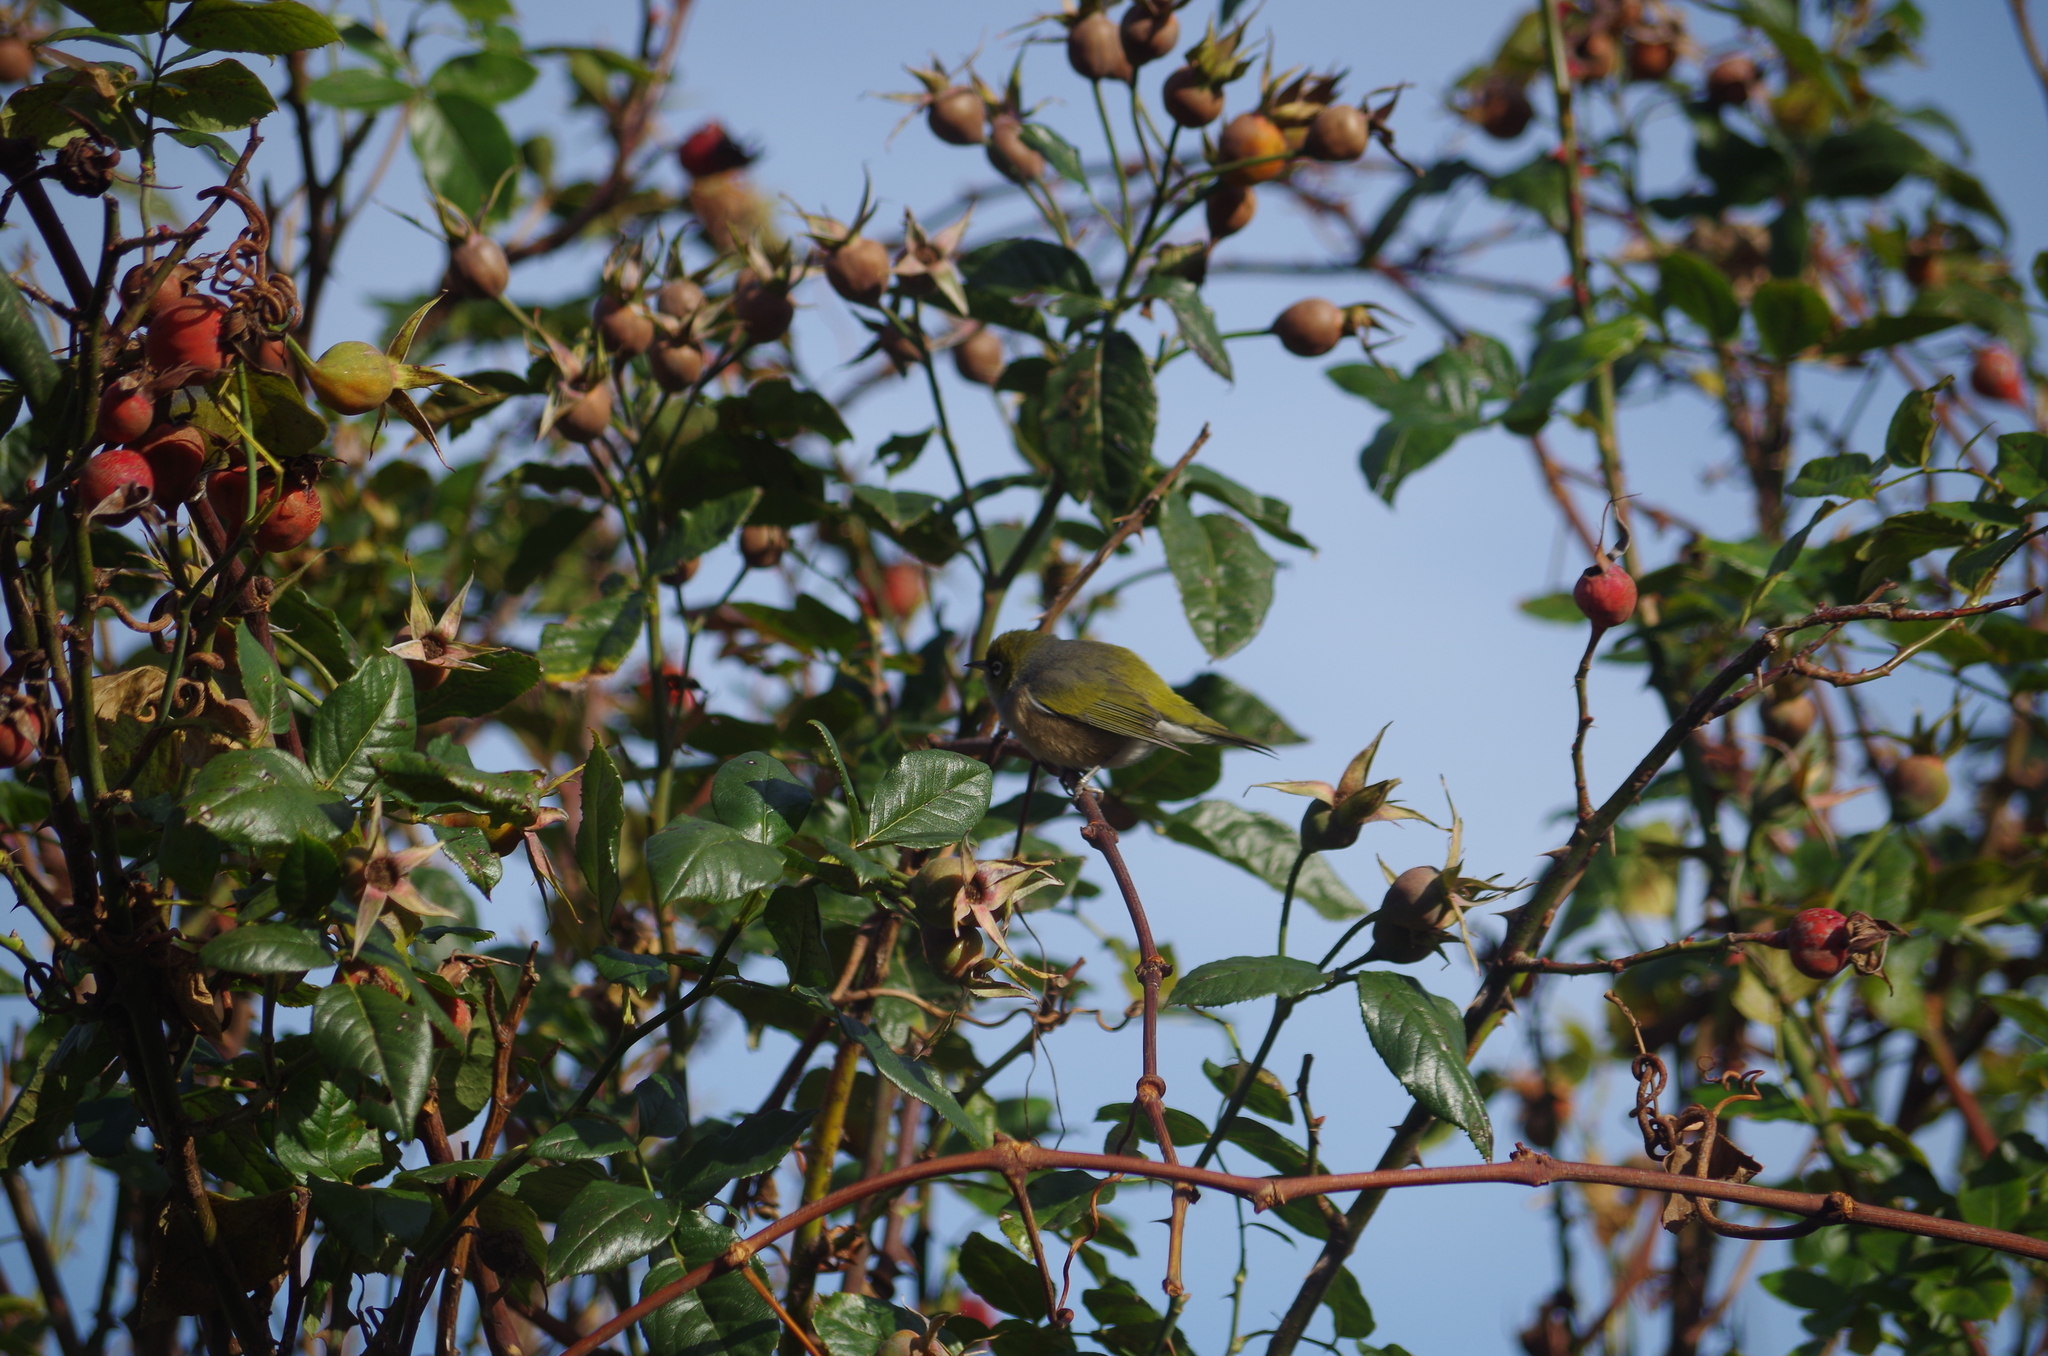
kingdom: Animalia
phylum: Chordata
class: Aves
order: Passeriformes
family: Zosteropidae
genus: Zosterops
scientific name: Zosterops lateralis
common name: Silvereye
